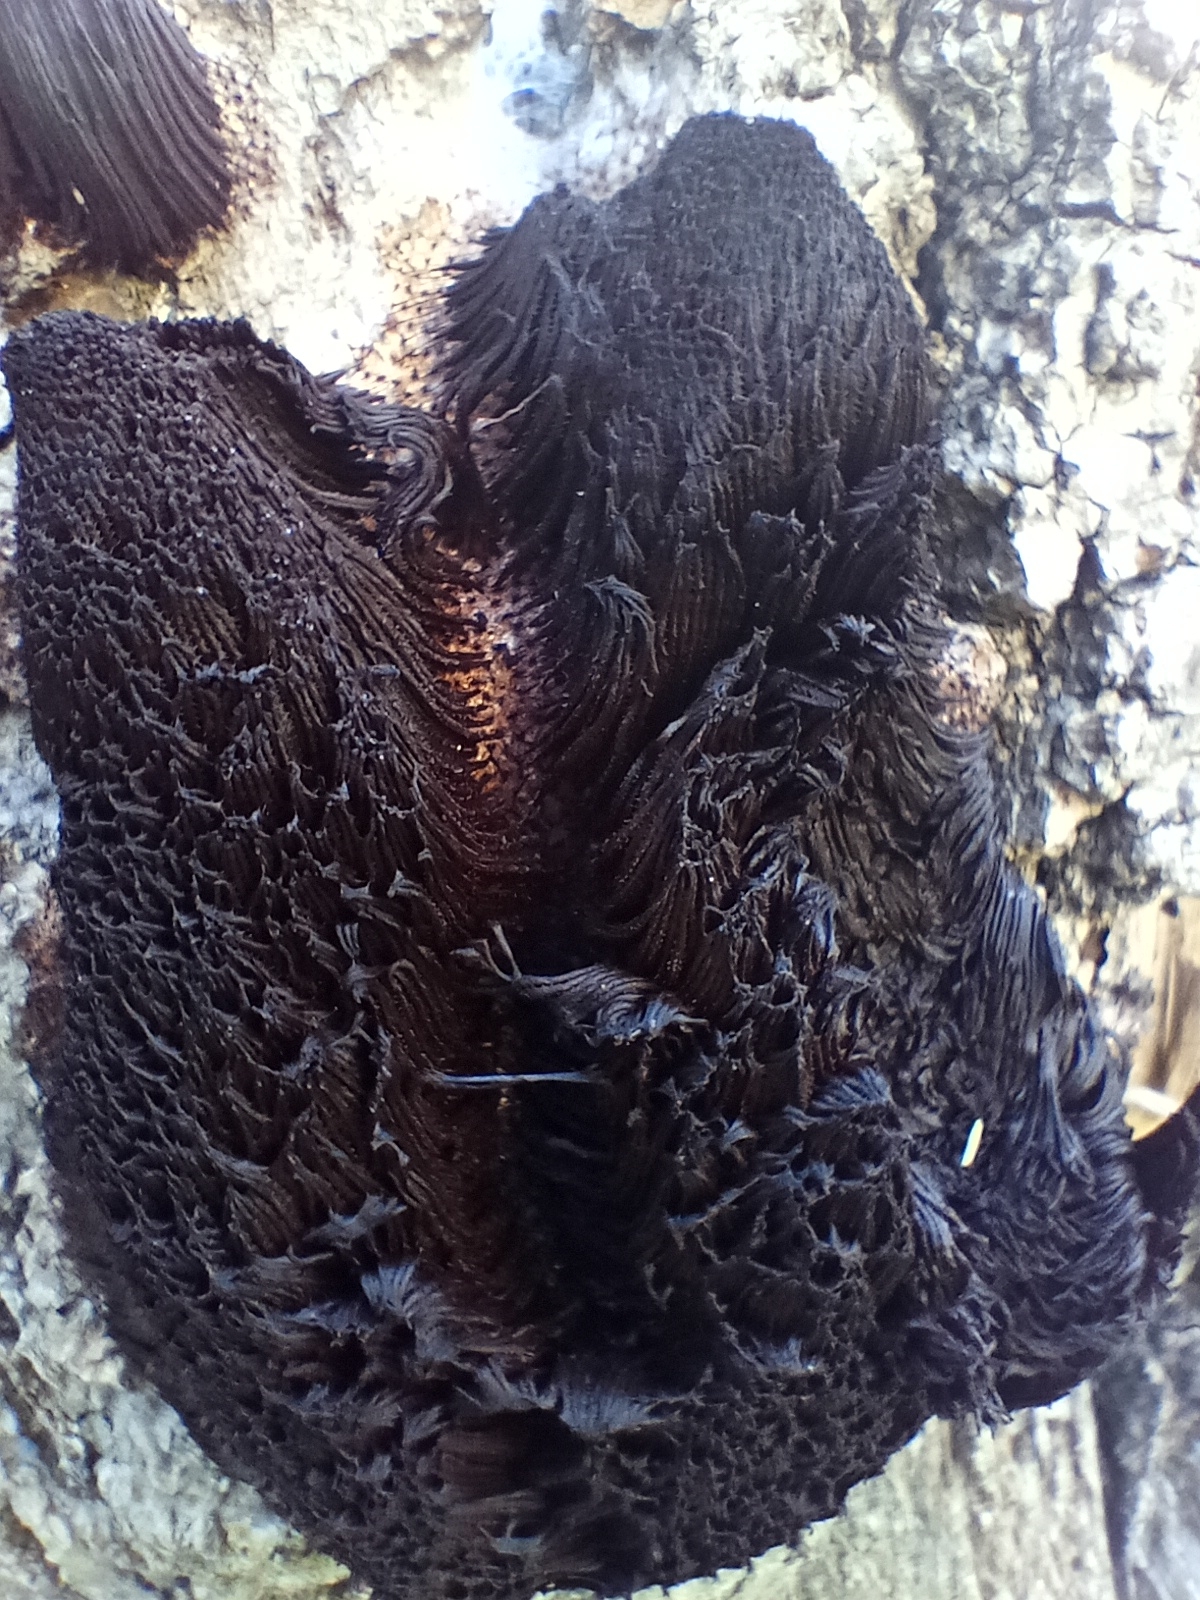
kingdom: Protozoa
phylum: Mycetozoa
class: Myxomycetes
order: Stemonitidales
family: Stemonitidaceae
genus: Stemonitis
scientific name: Stemonitis fusca
